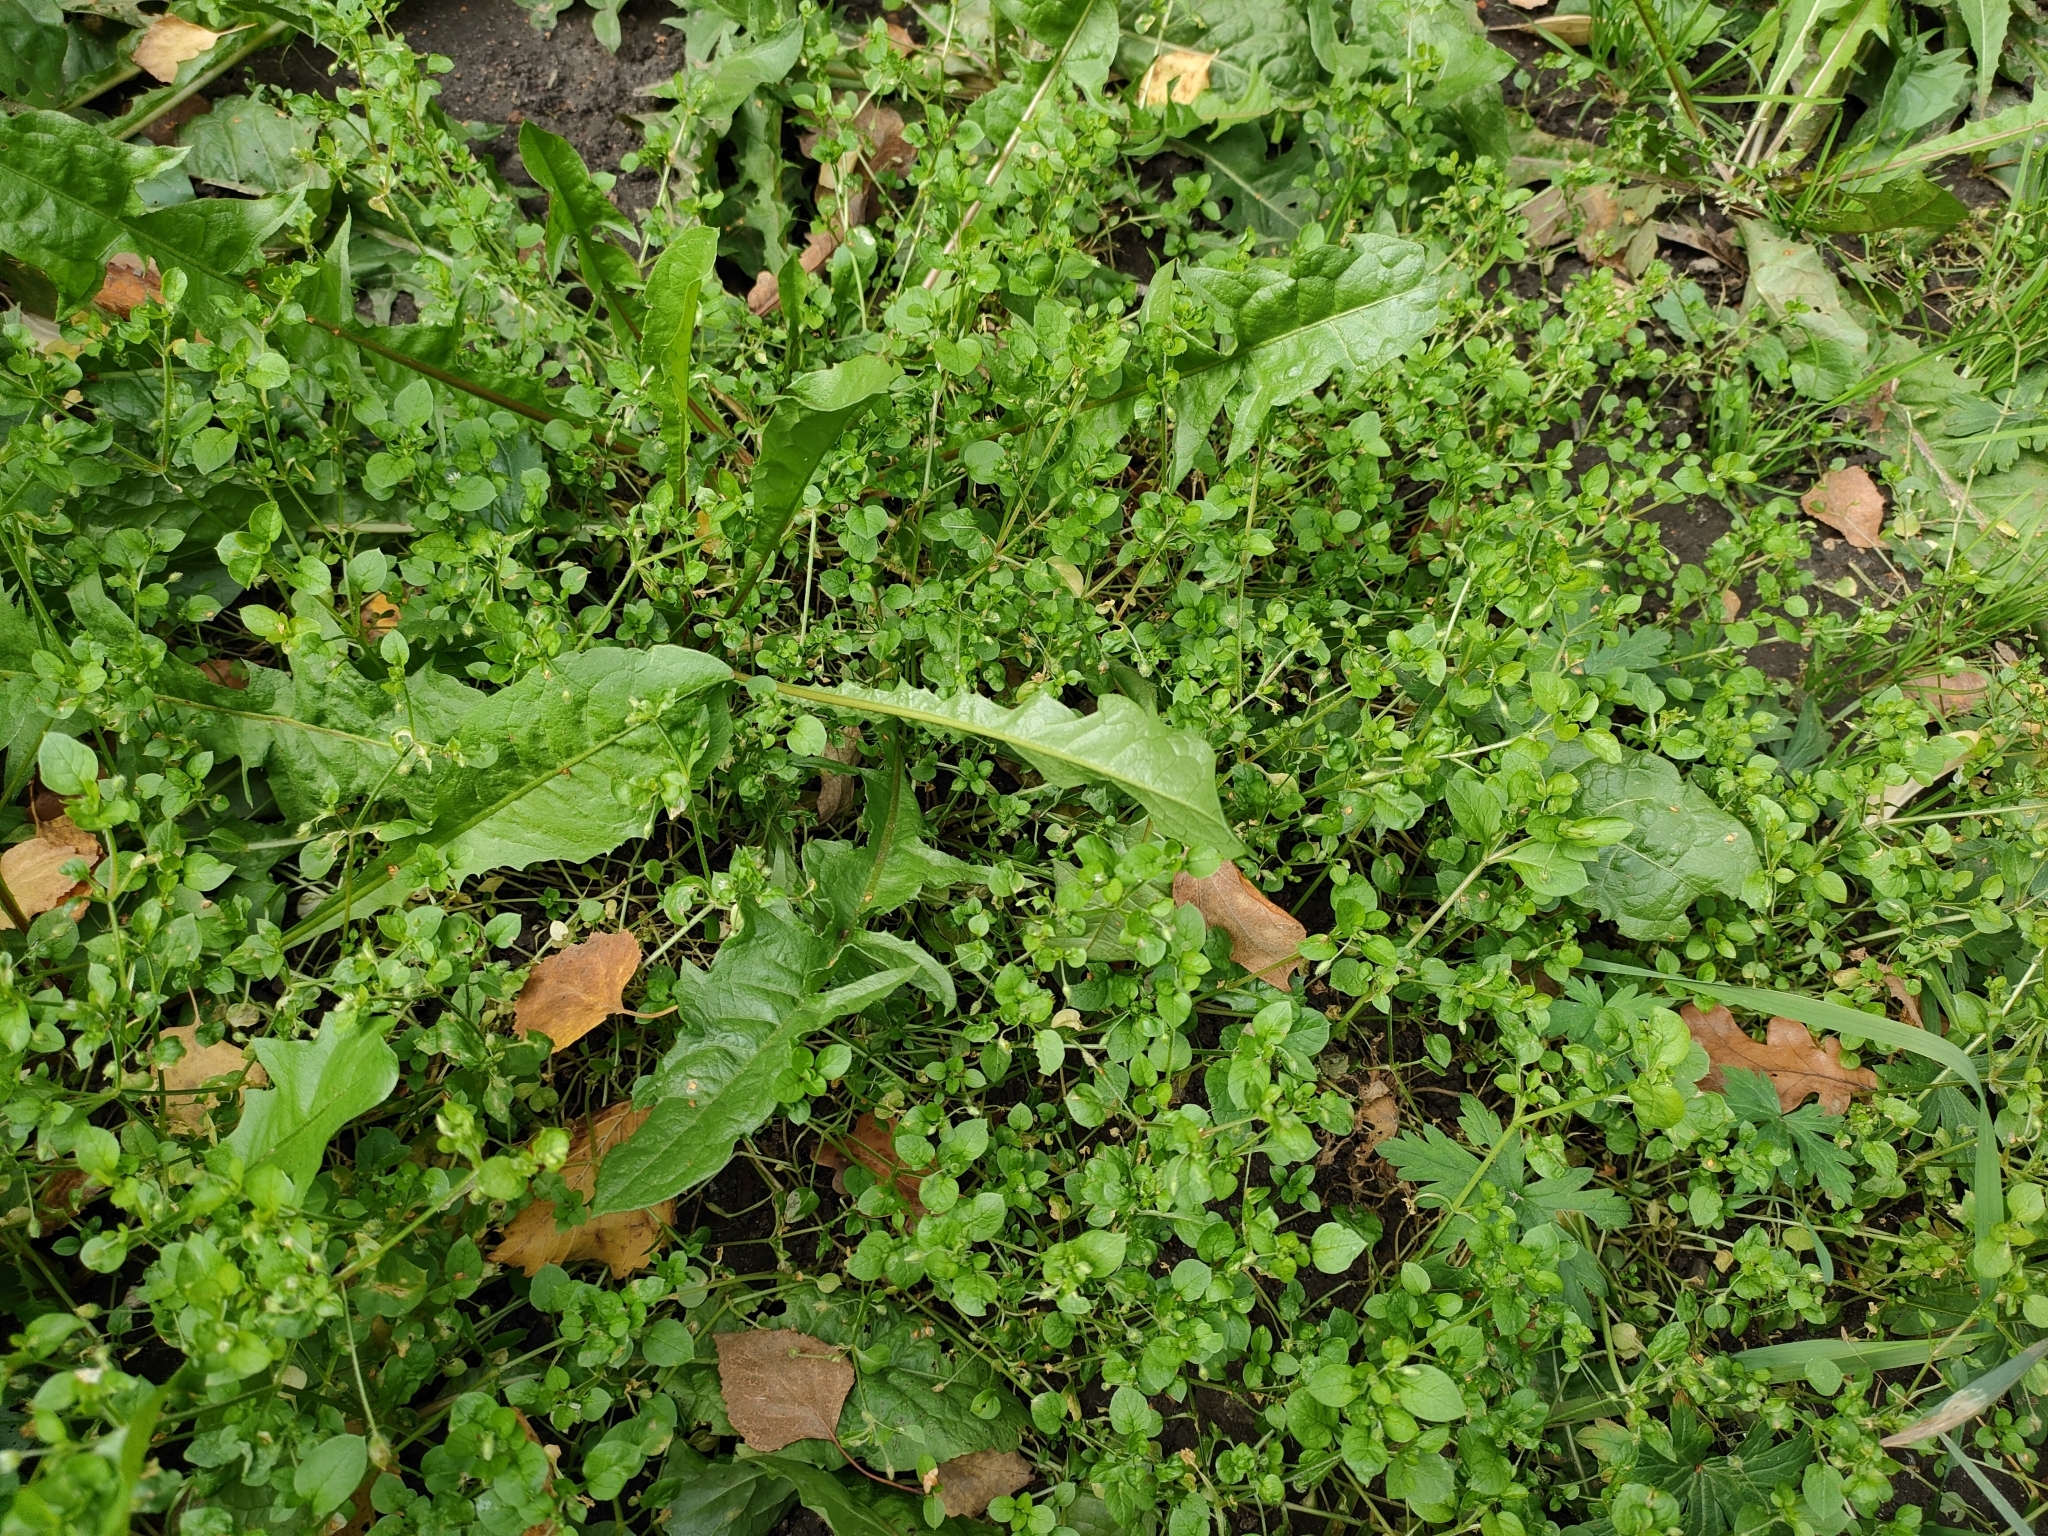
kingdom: Plantae
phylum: Tracheophyta
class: Magnoliopsida
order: Caryophyllales
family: Caryophyllaceae
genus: Stellaria
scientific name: Stellaria media
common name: Common chickweed
